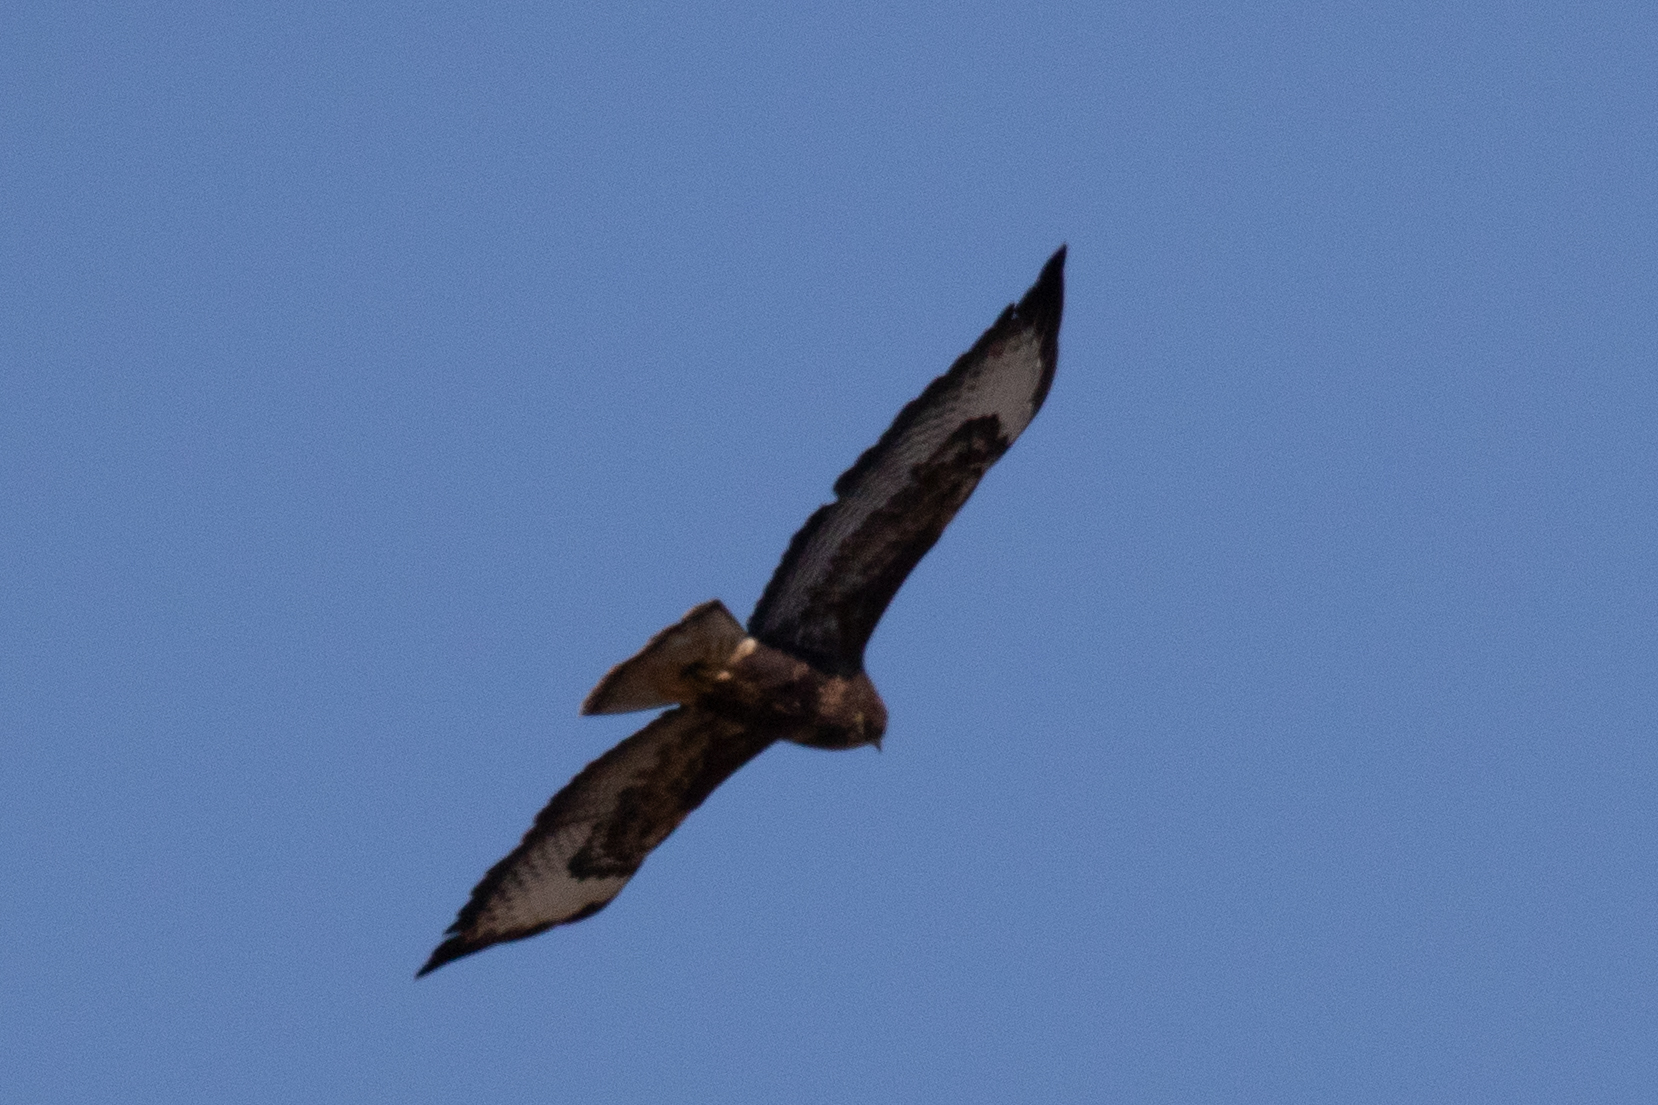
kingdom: Animalia
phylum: Chordata
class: Aves
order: Accipitriformes
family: Accipitridae
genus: Buteo
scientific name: Buteo buteo
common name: Common buzzard
